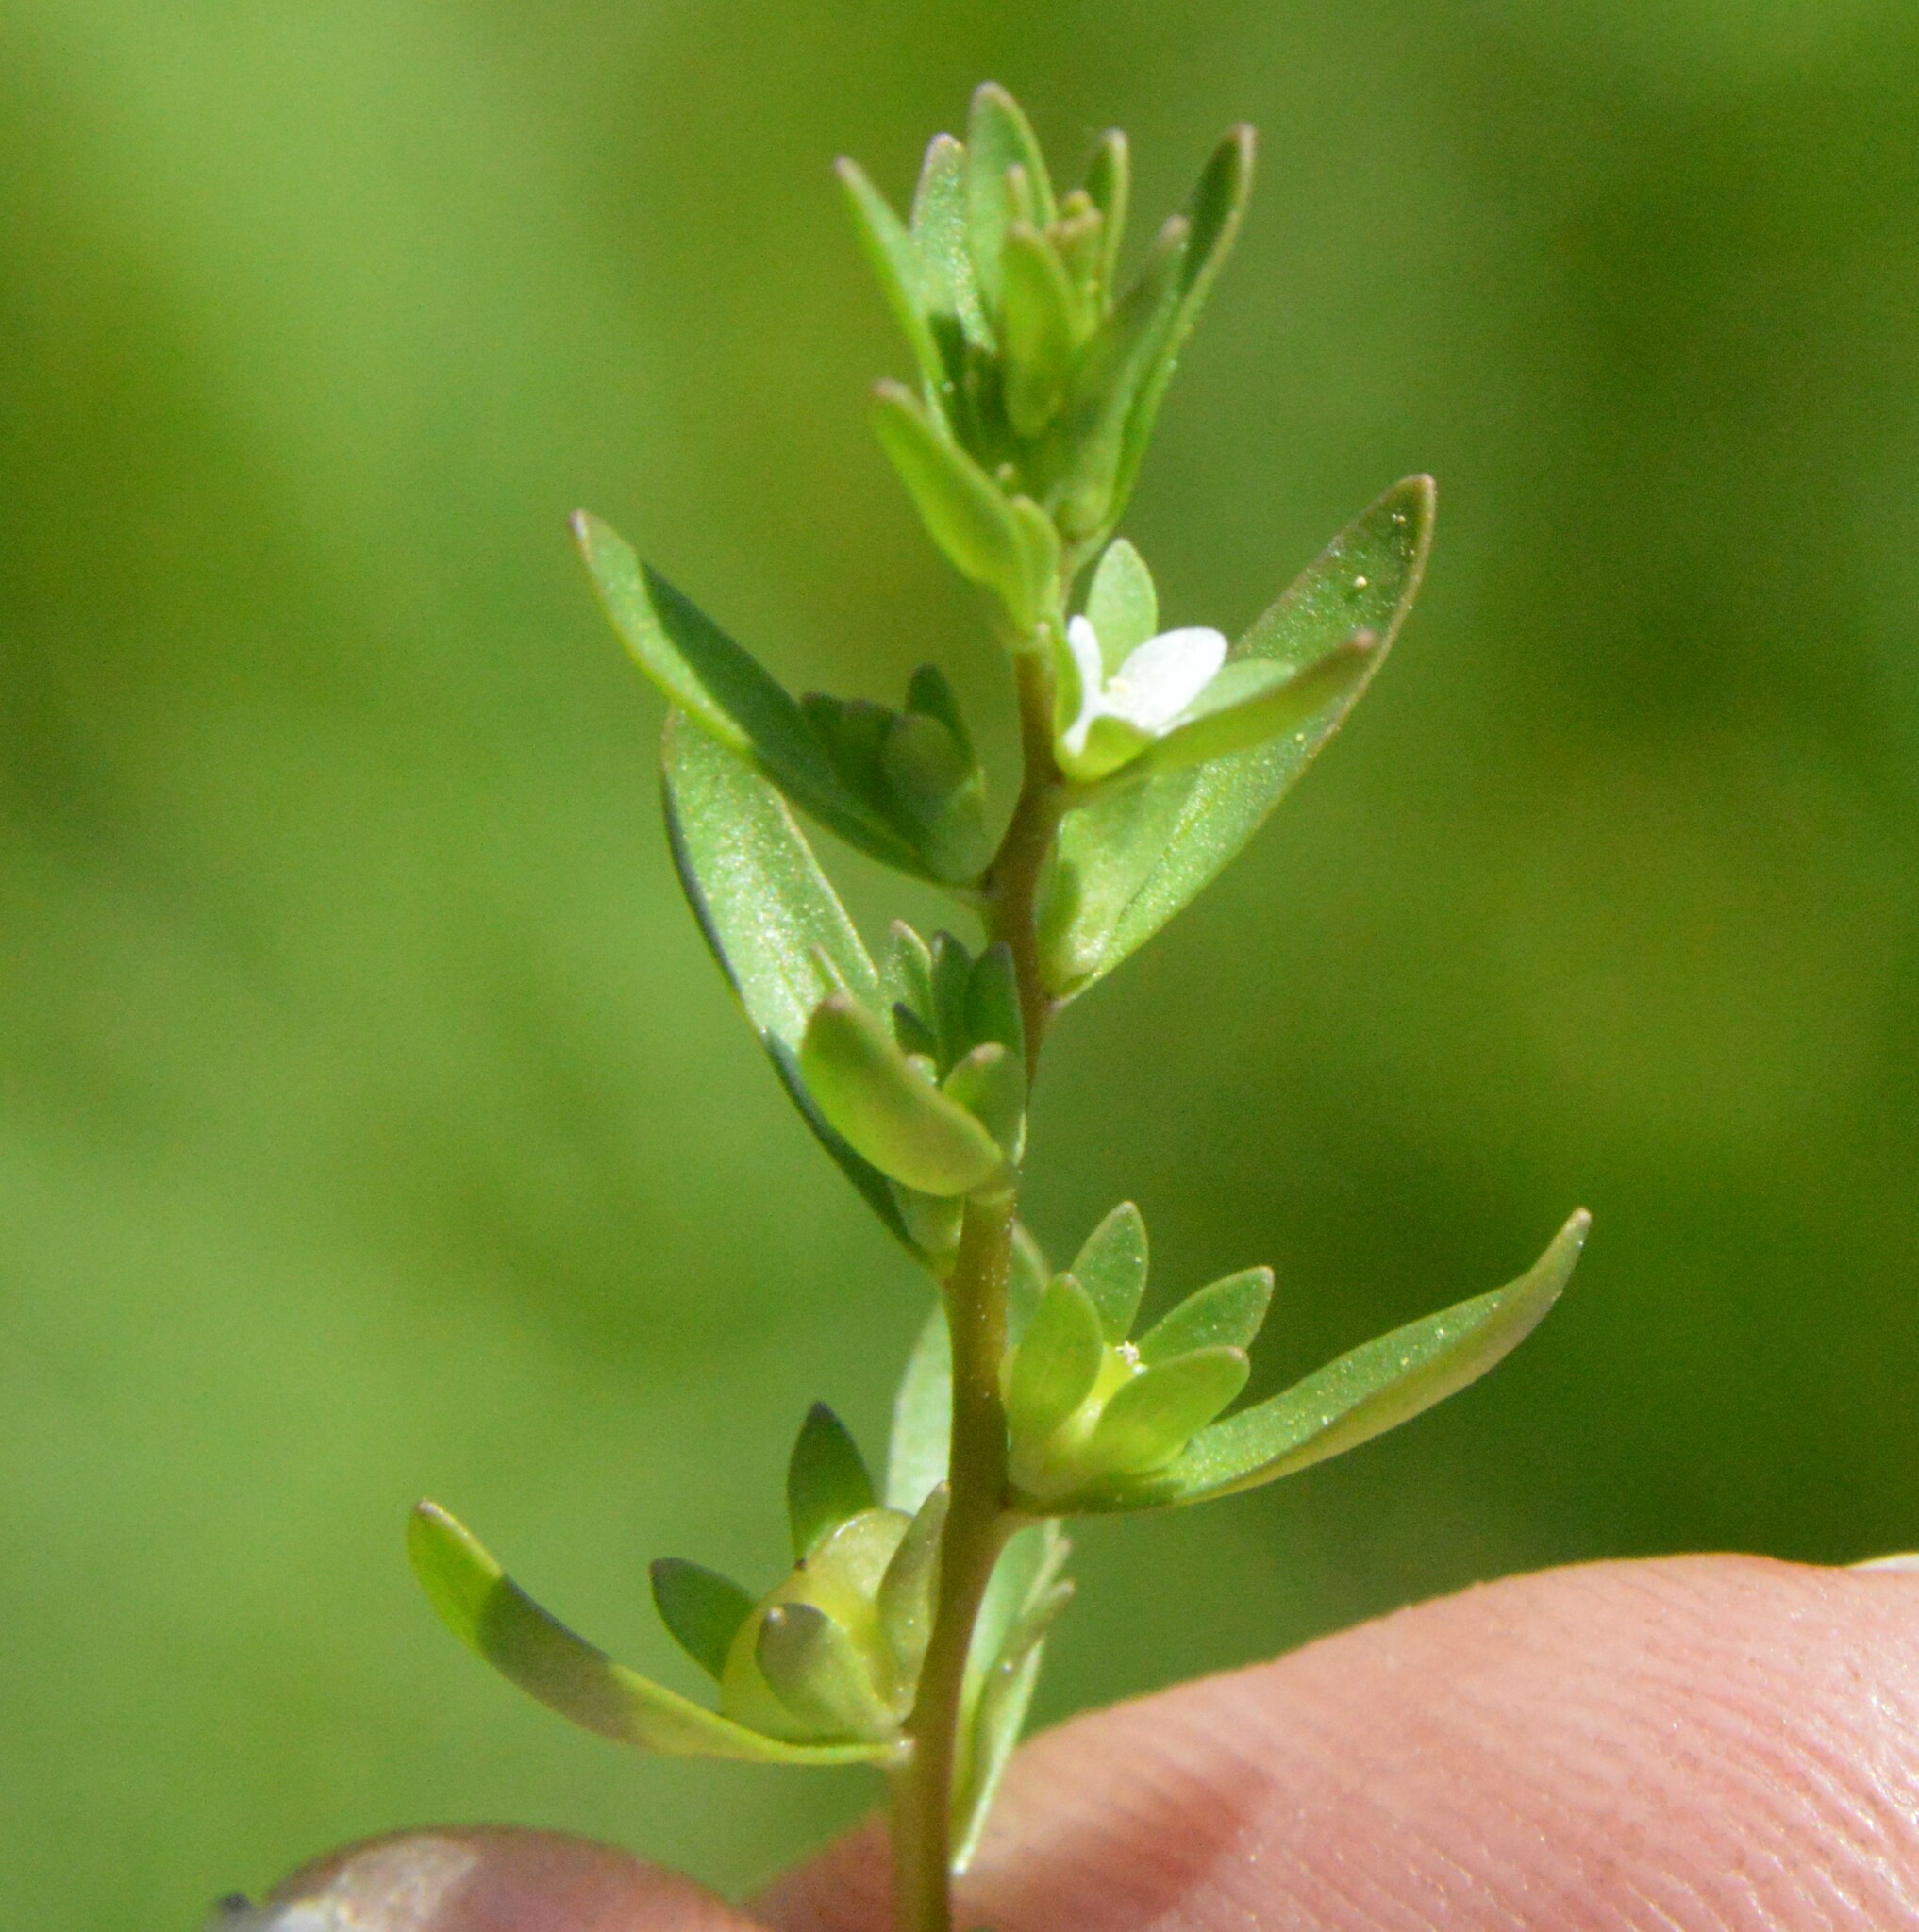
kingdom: Plantae
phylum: Tracheophyta
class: Magnoliopsida
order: Lamiales
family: Plantaginaceae
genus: Veronica
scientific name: Veronica peregrina
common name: Neckweed
